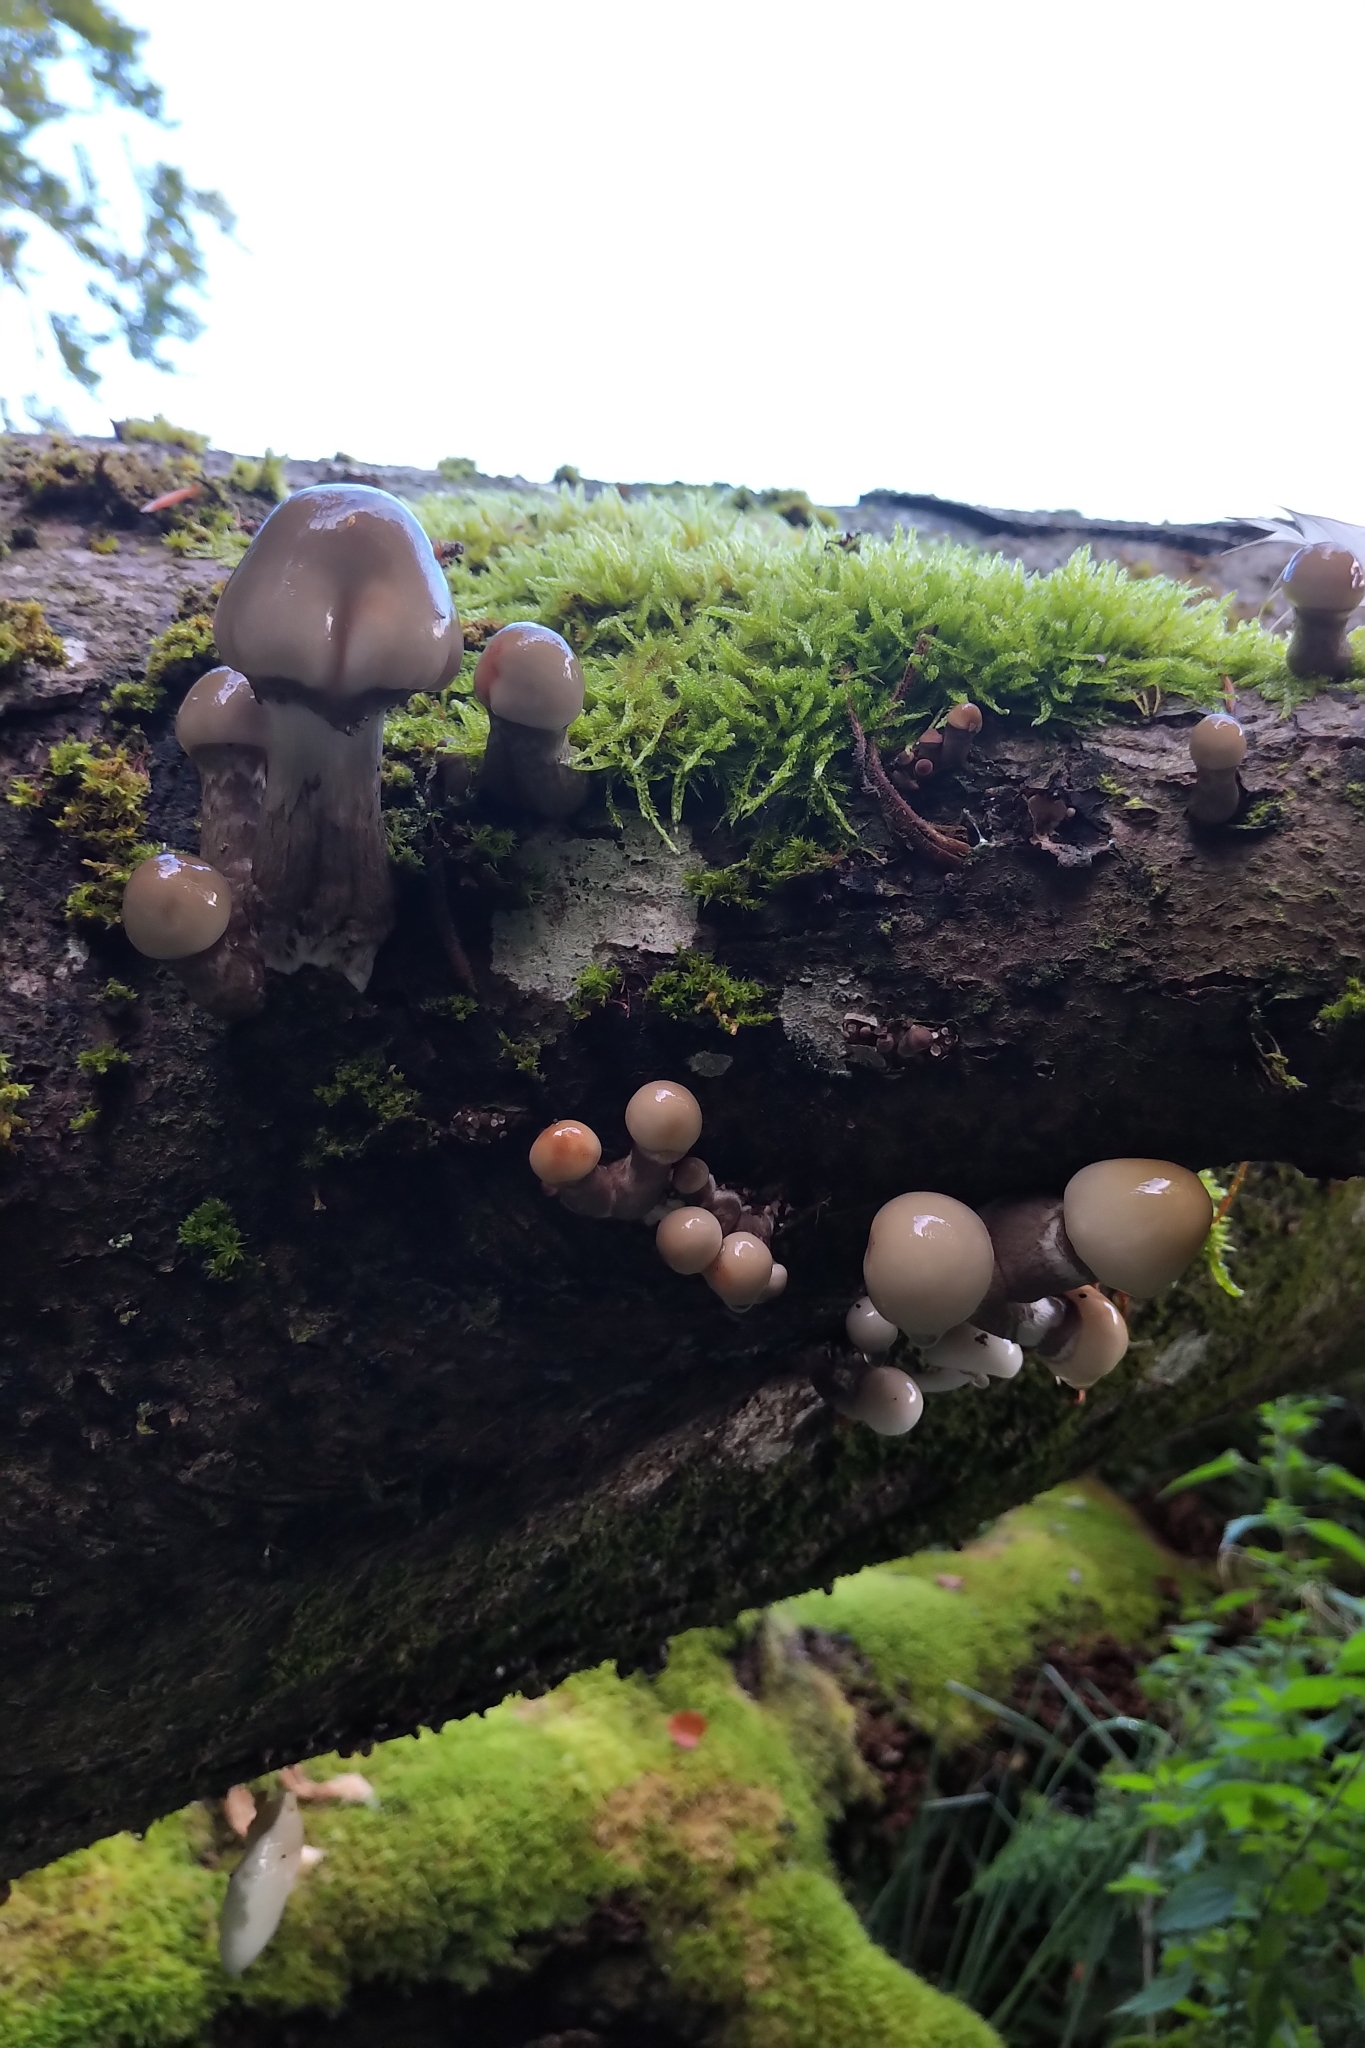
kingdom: Fungi
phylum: Basidiomycota
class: Agaricomycetes
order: Agaricales
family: Physalacriaceae
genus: Mucidula
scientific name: Mucidula mucida
